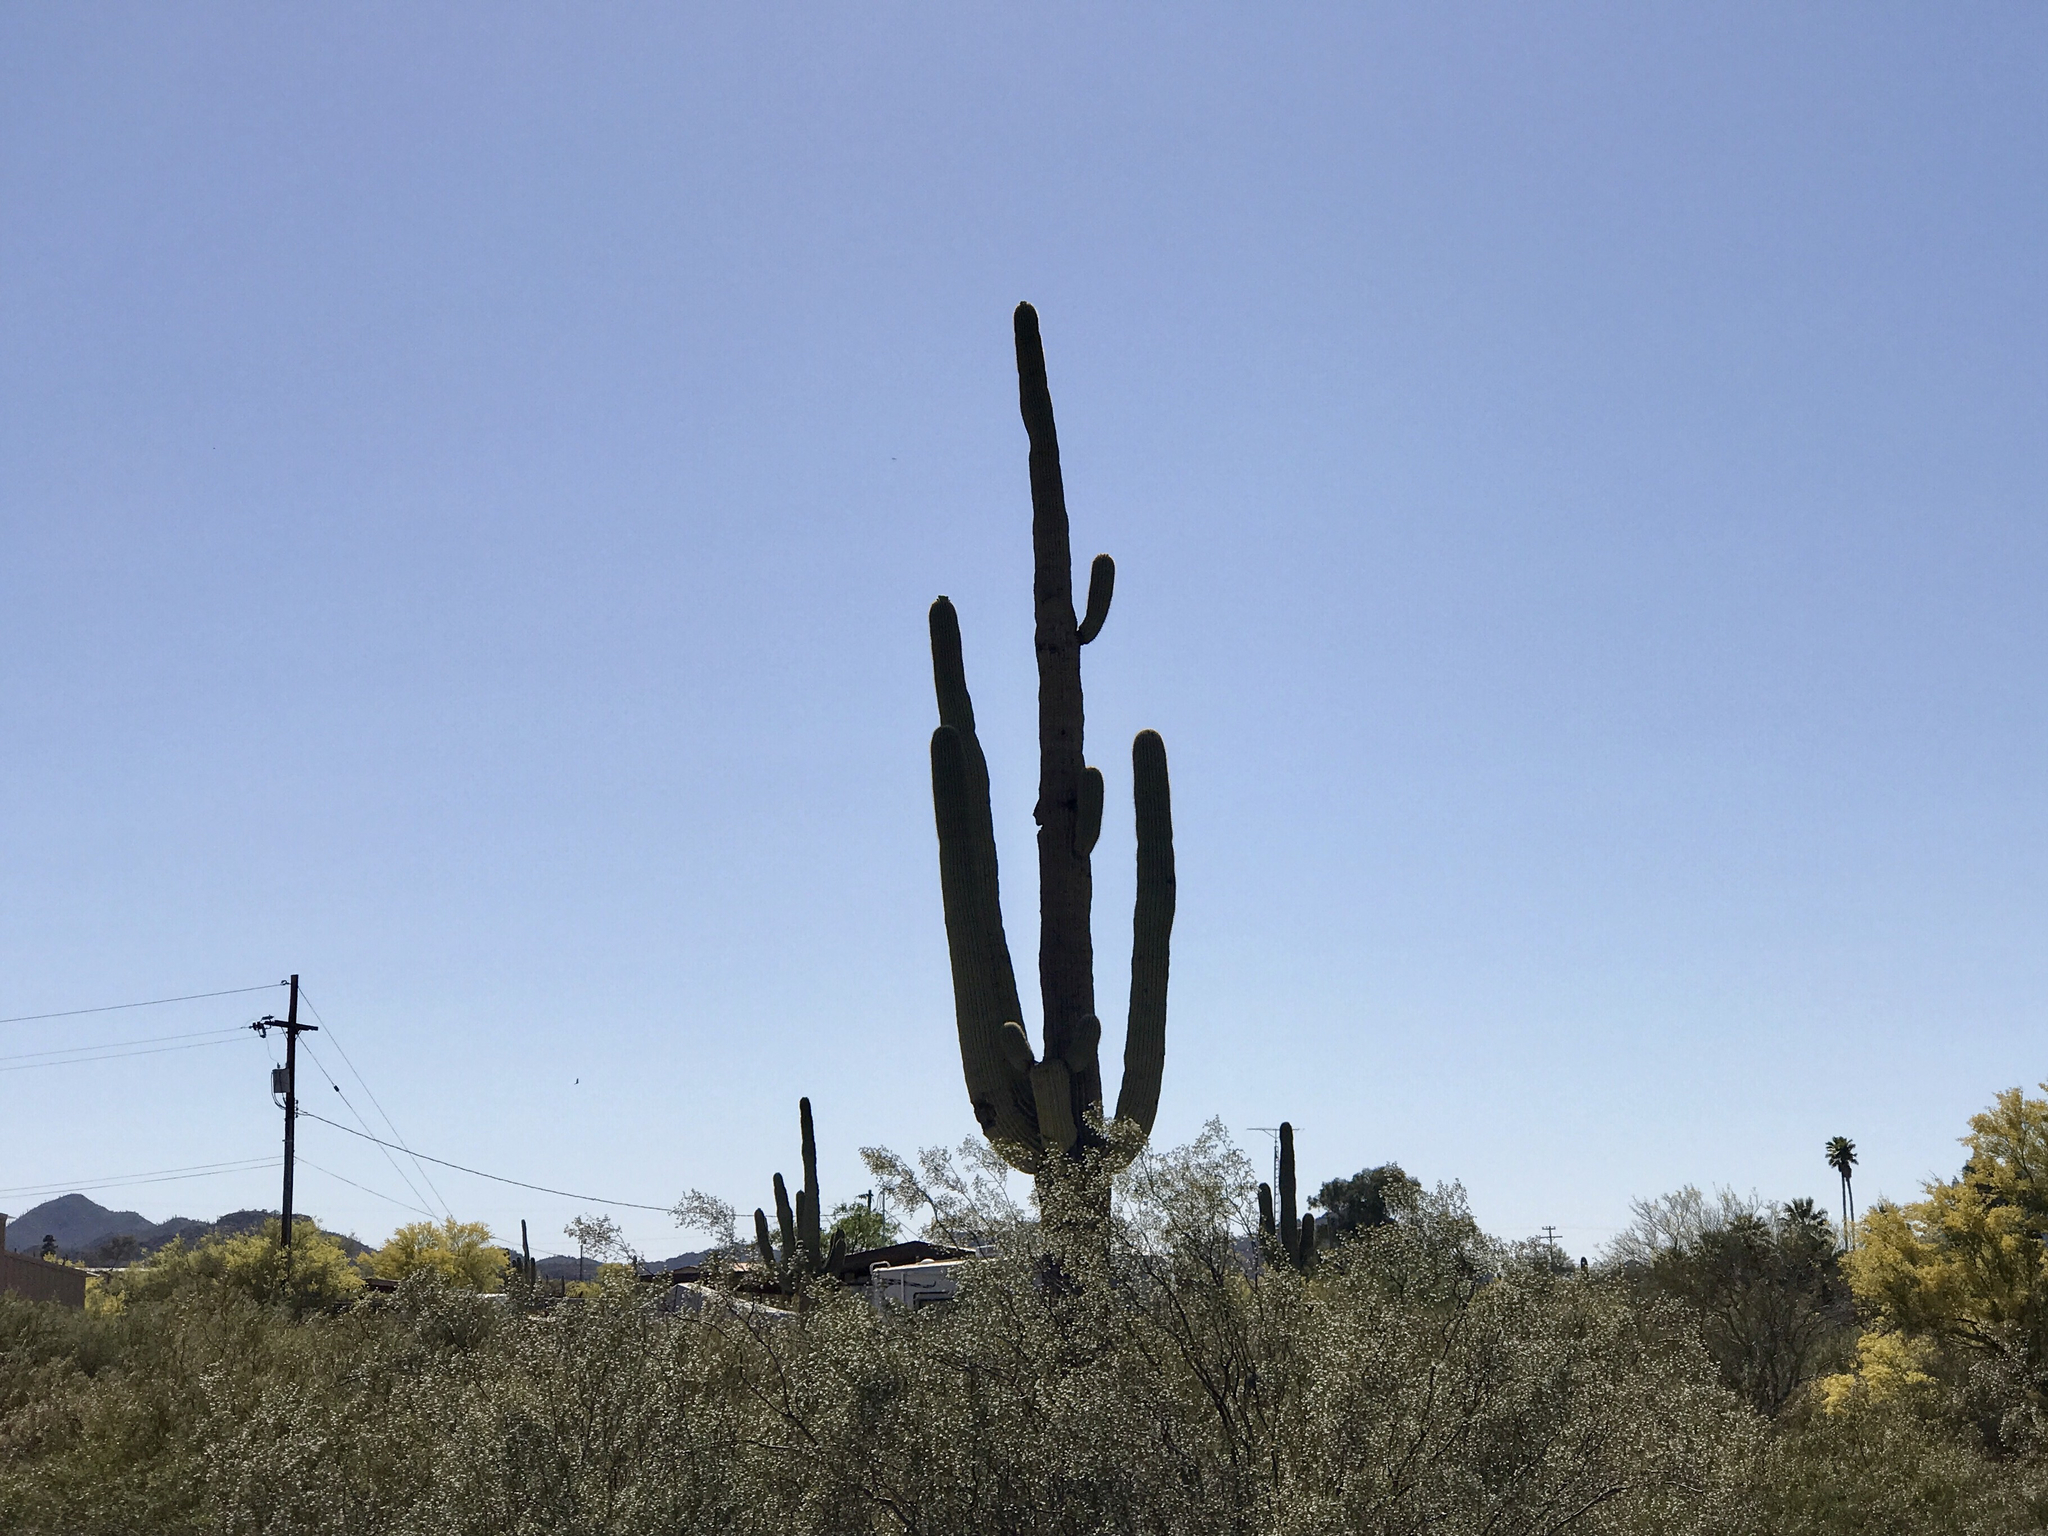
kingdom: Plantae
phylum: Tracheophyta
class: Magnoliopsida
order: Caryophyllales
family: Cactaceae
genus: Carnegiea
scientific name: Carnegiea gigantea
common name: Saguaro
